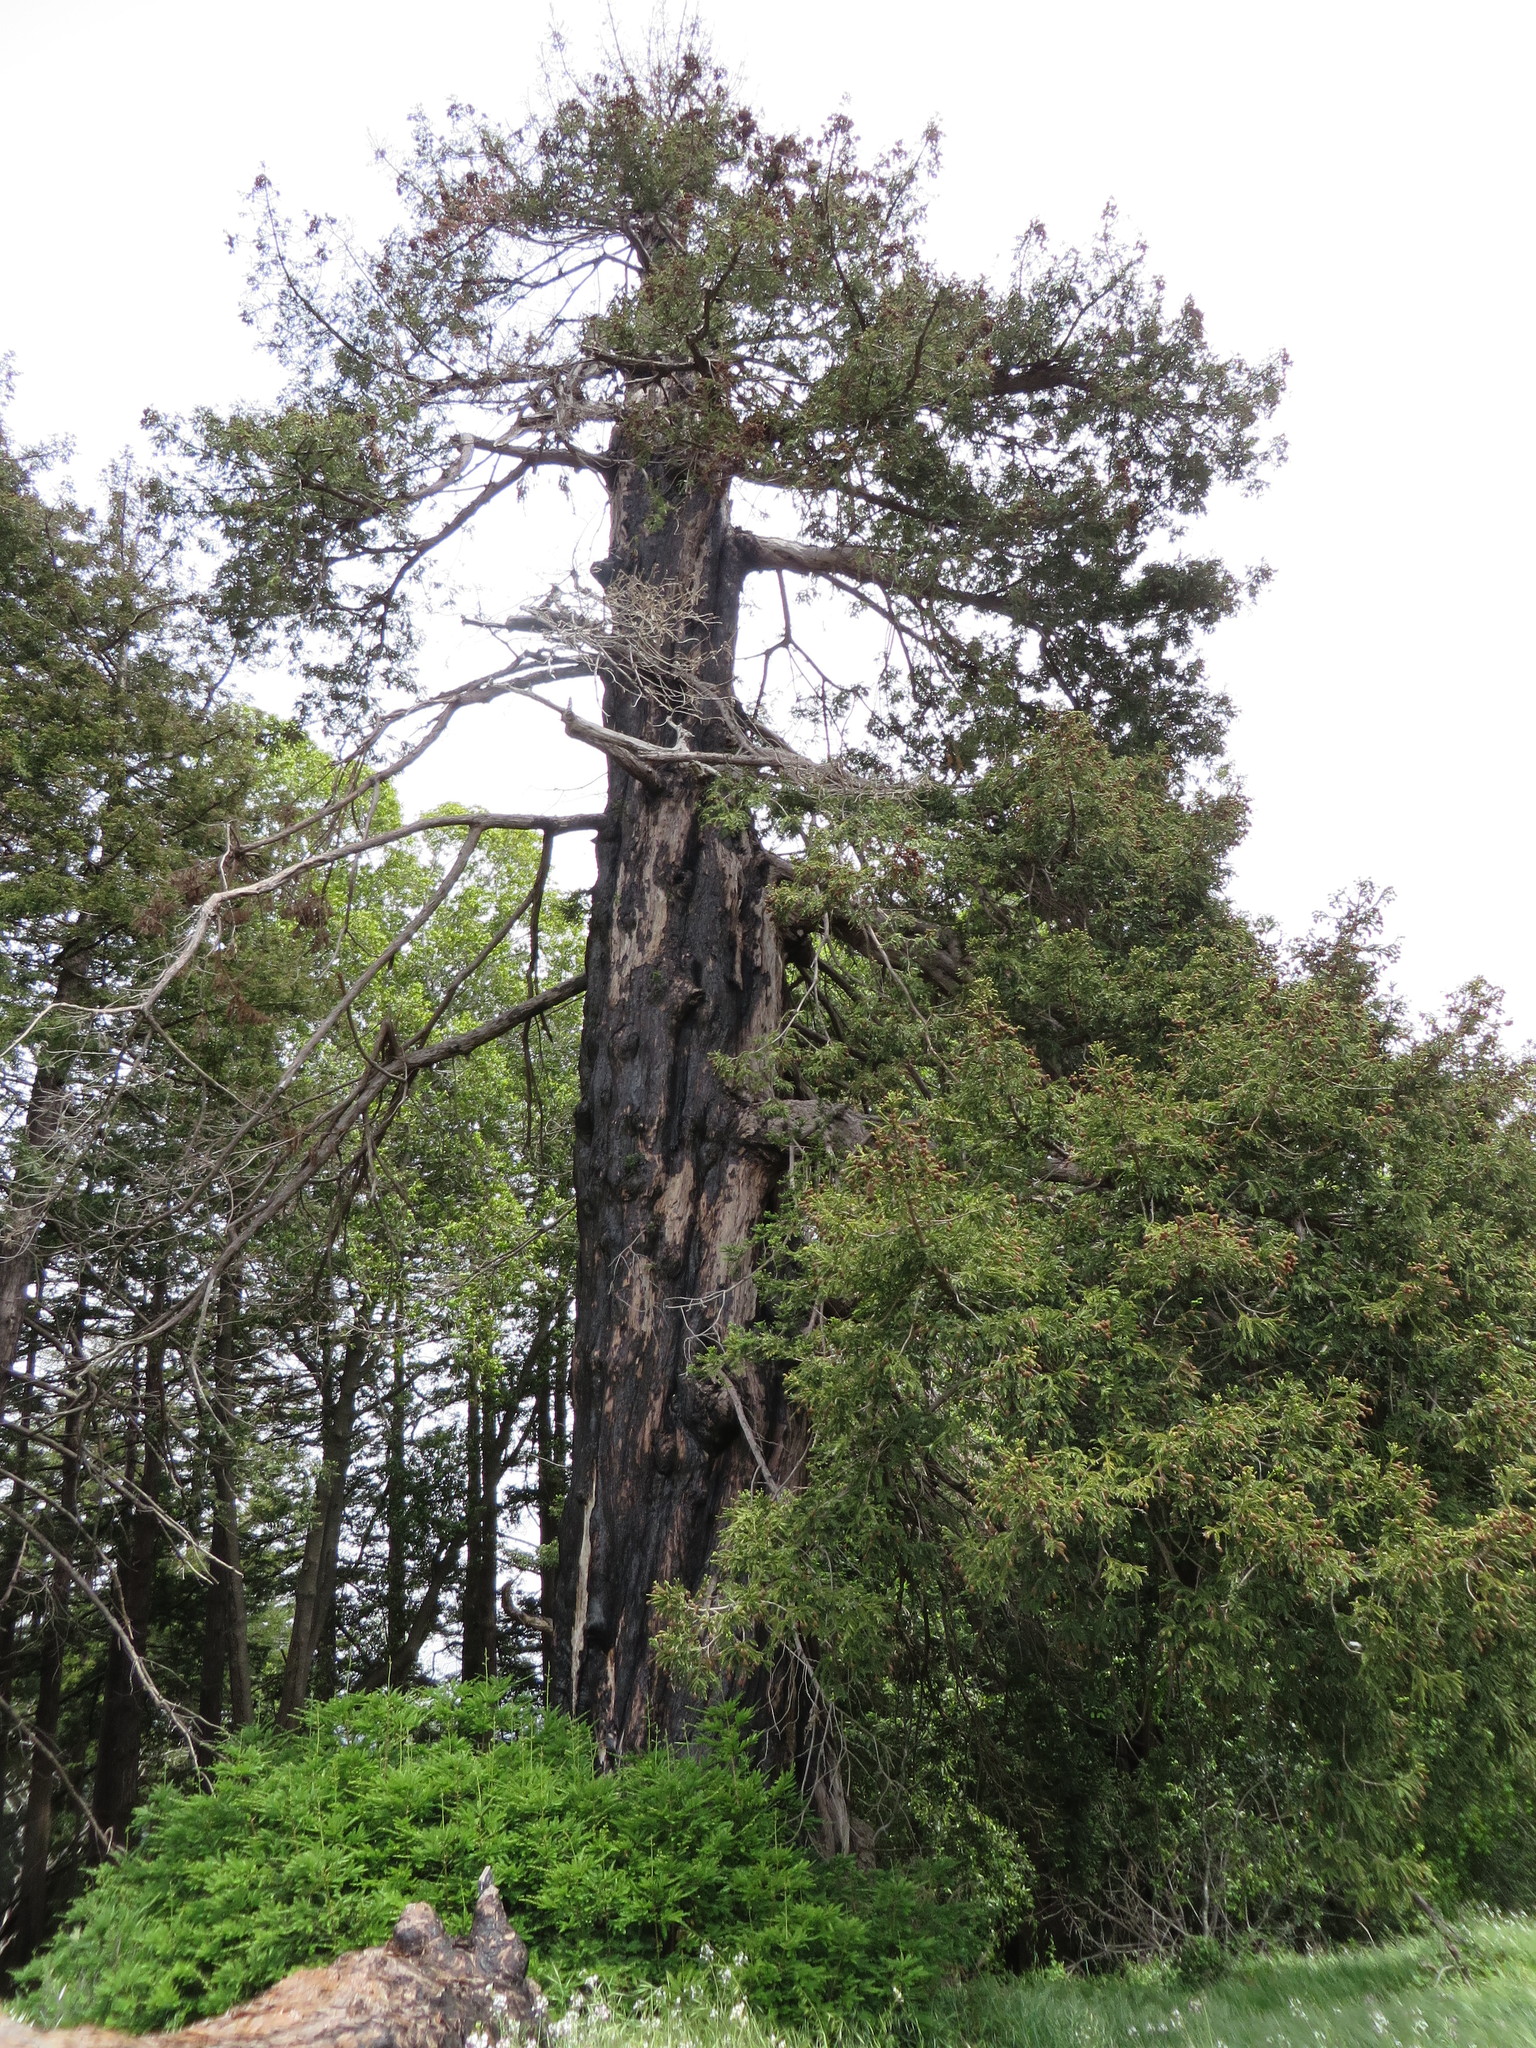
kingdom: Plantae
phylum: Tracheophyta
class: Pinopsida
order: Pinales
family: Cupressaceae
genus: Sequoia
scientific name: Sequoia sempervirens
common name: Coast redwood
